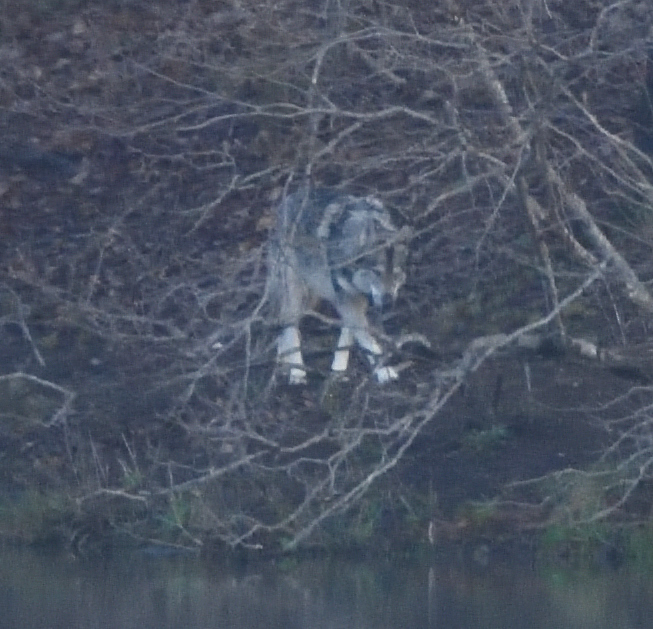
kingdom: Animalia
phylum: Chordata
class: Mammalia
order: Carnivora
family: Canidae
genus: Canis
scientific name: Canis
